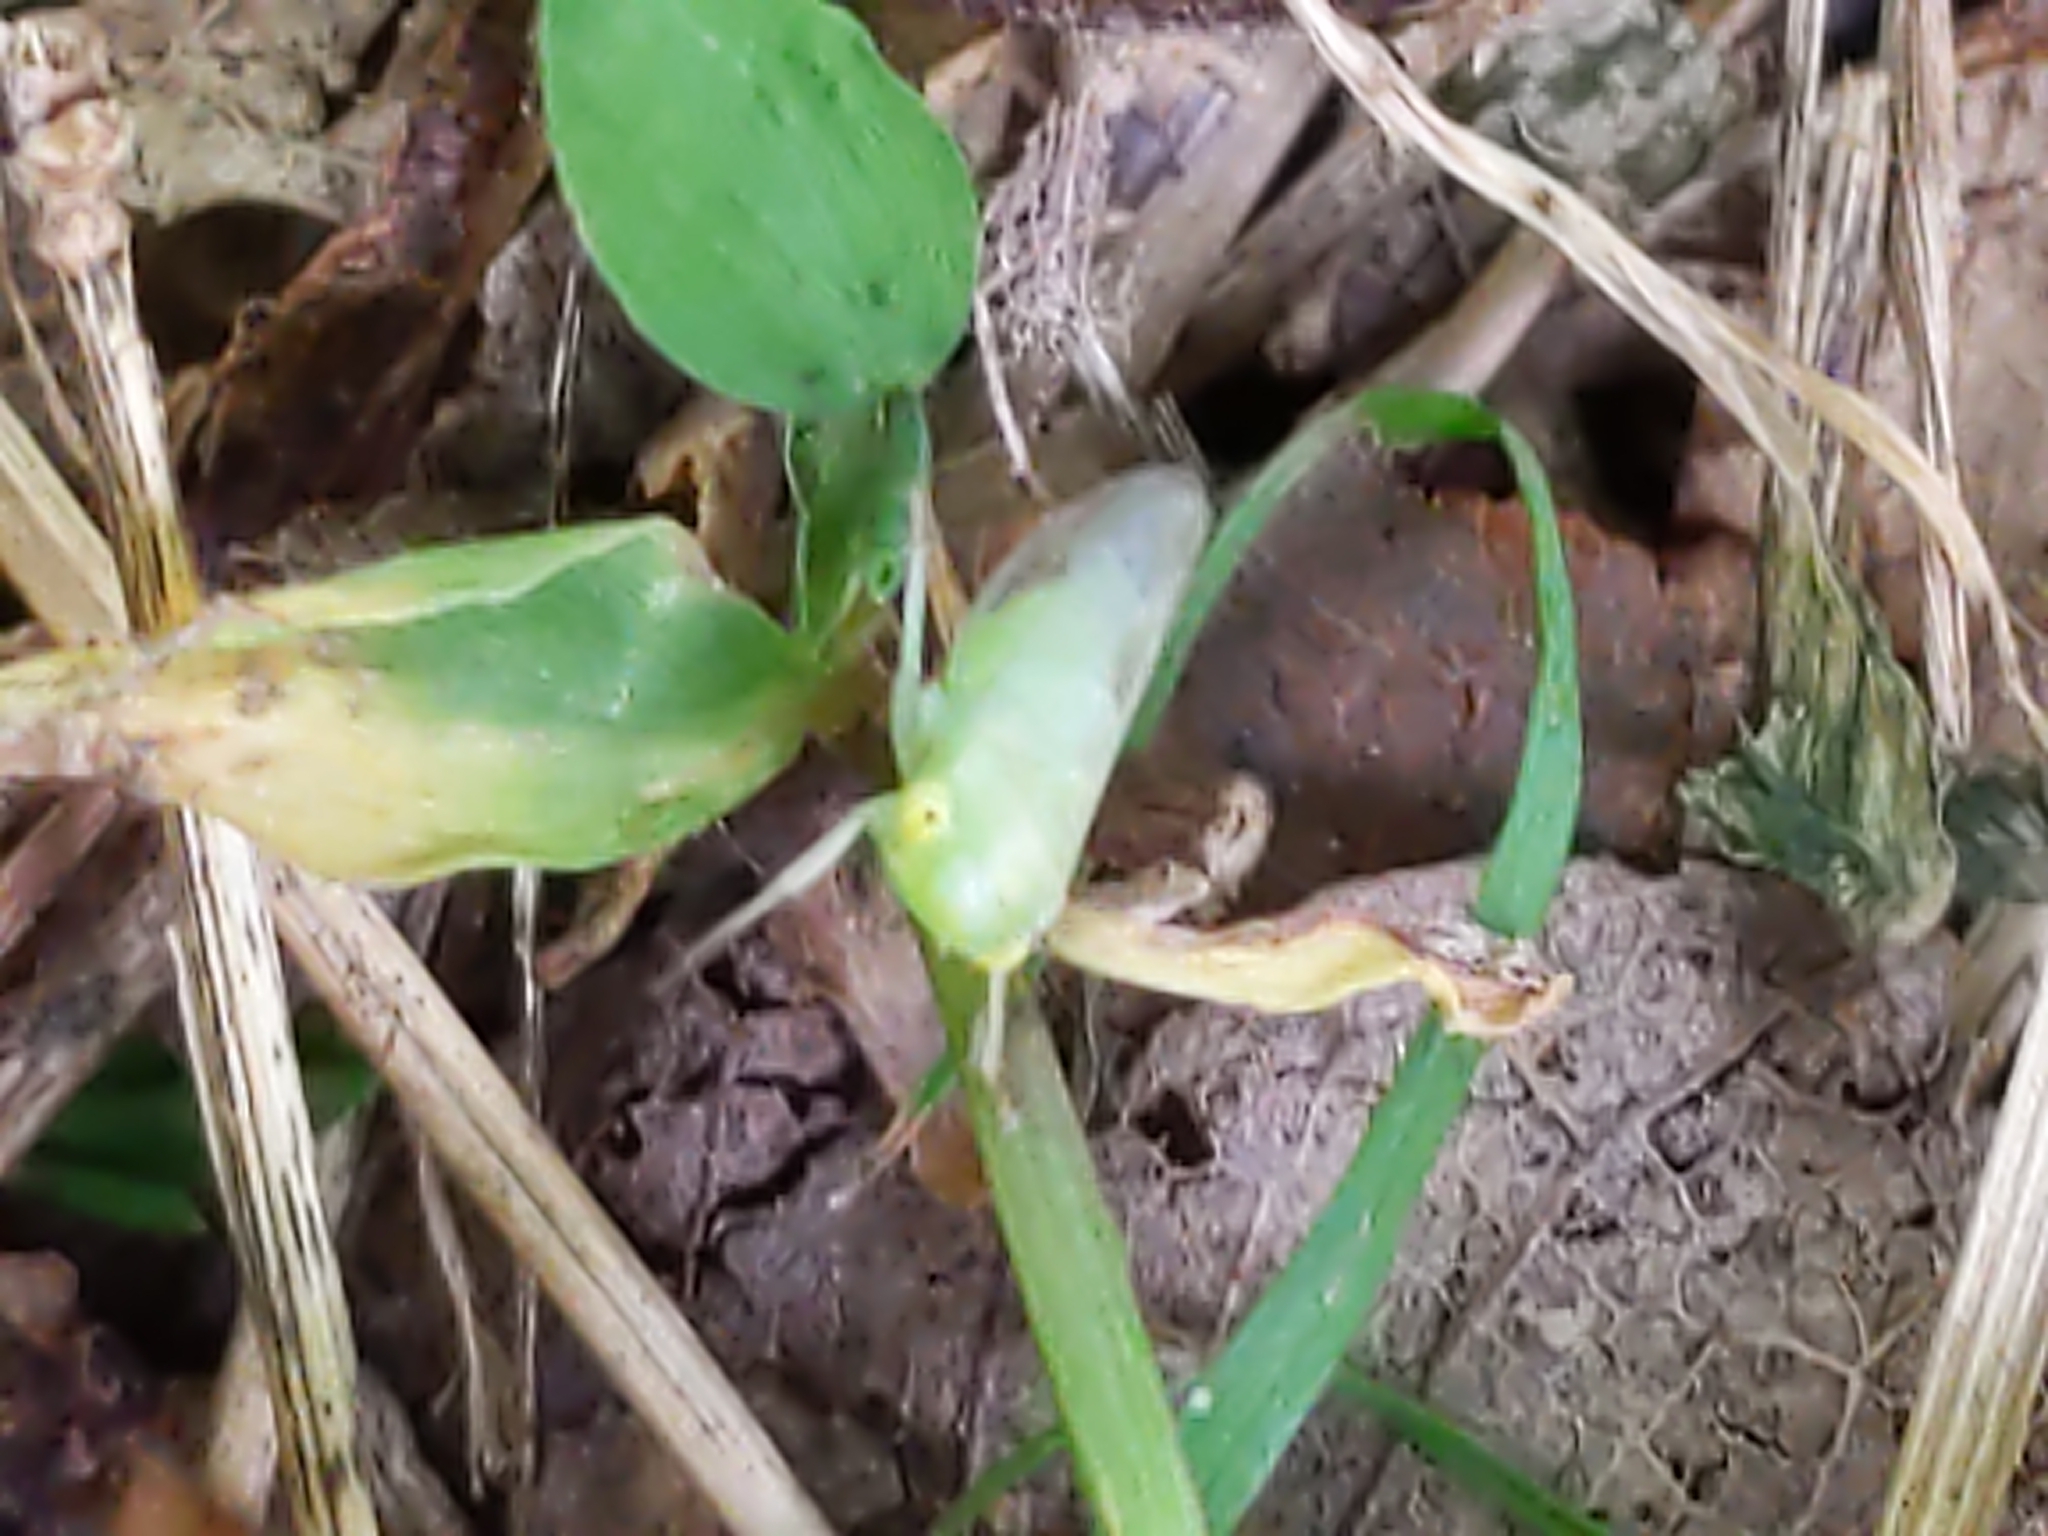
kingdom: Animalia
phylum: Arthropoda
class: Insecta
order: Hemiptera
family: Cicadellidae
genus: Idiocerus
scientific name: Idiocerus
